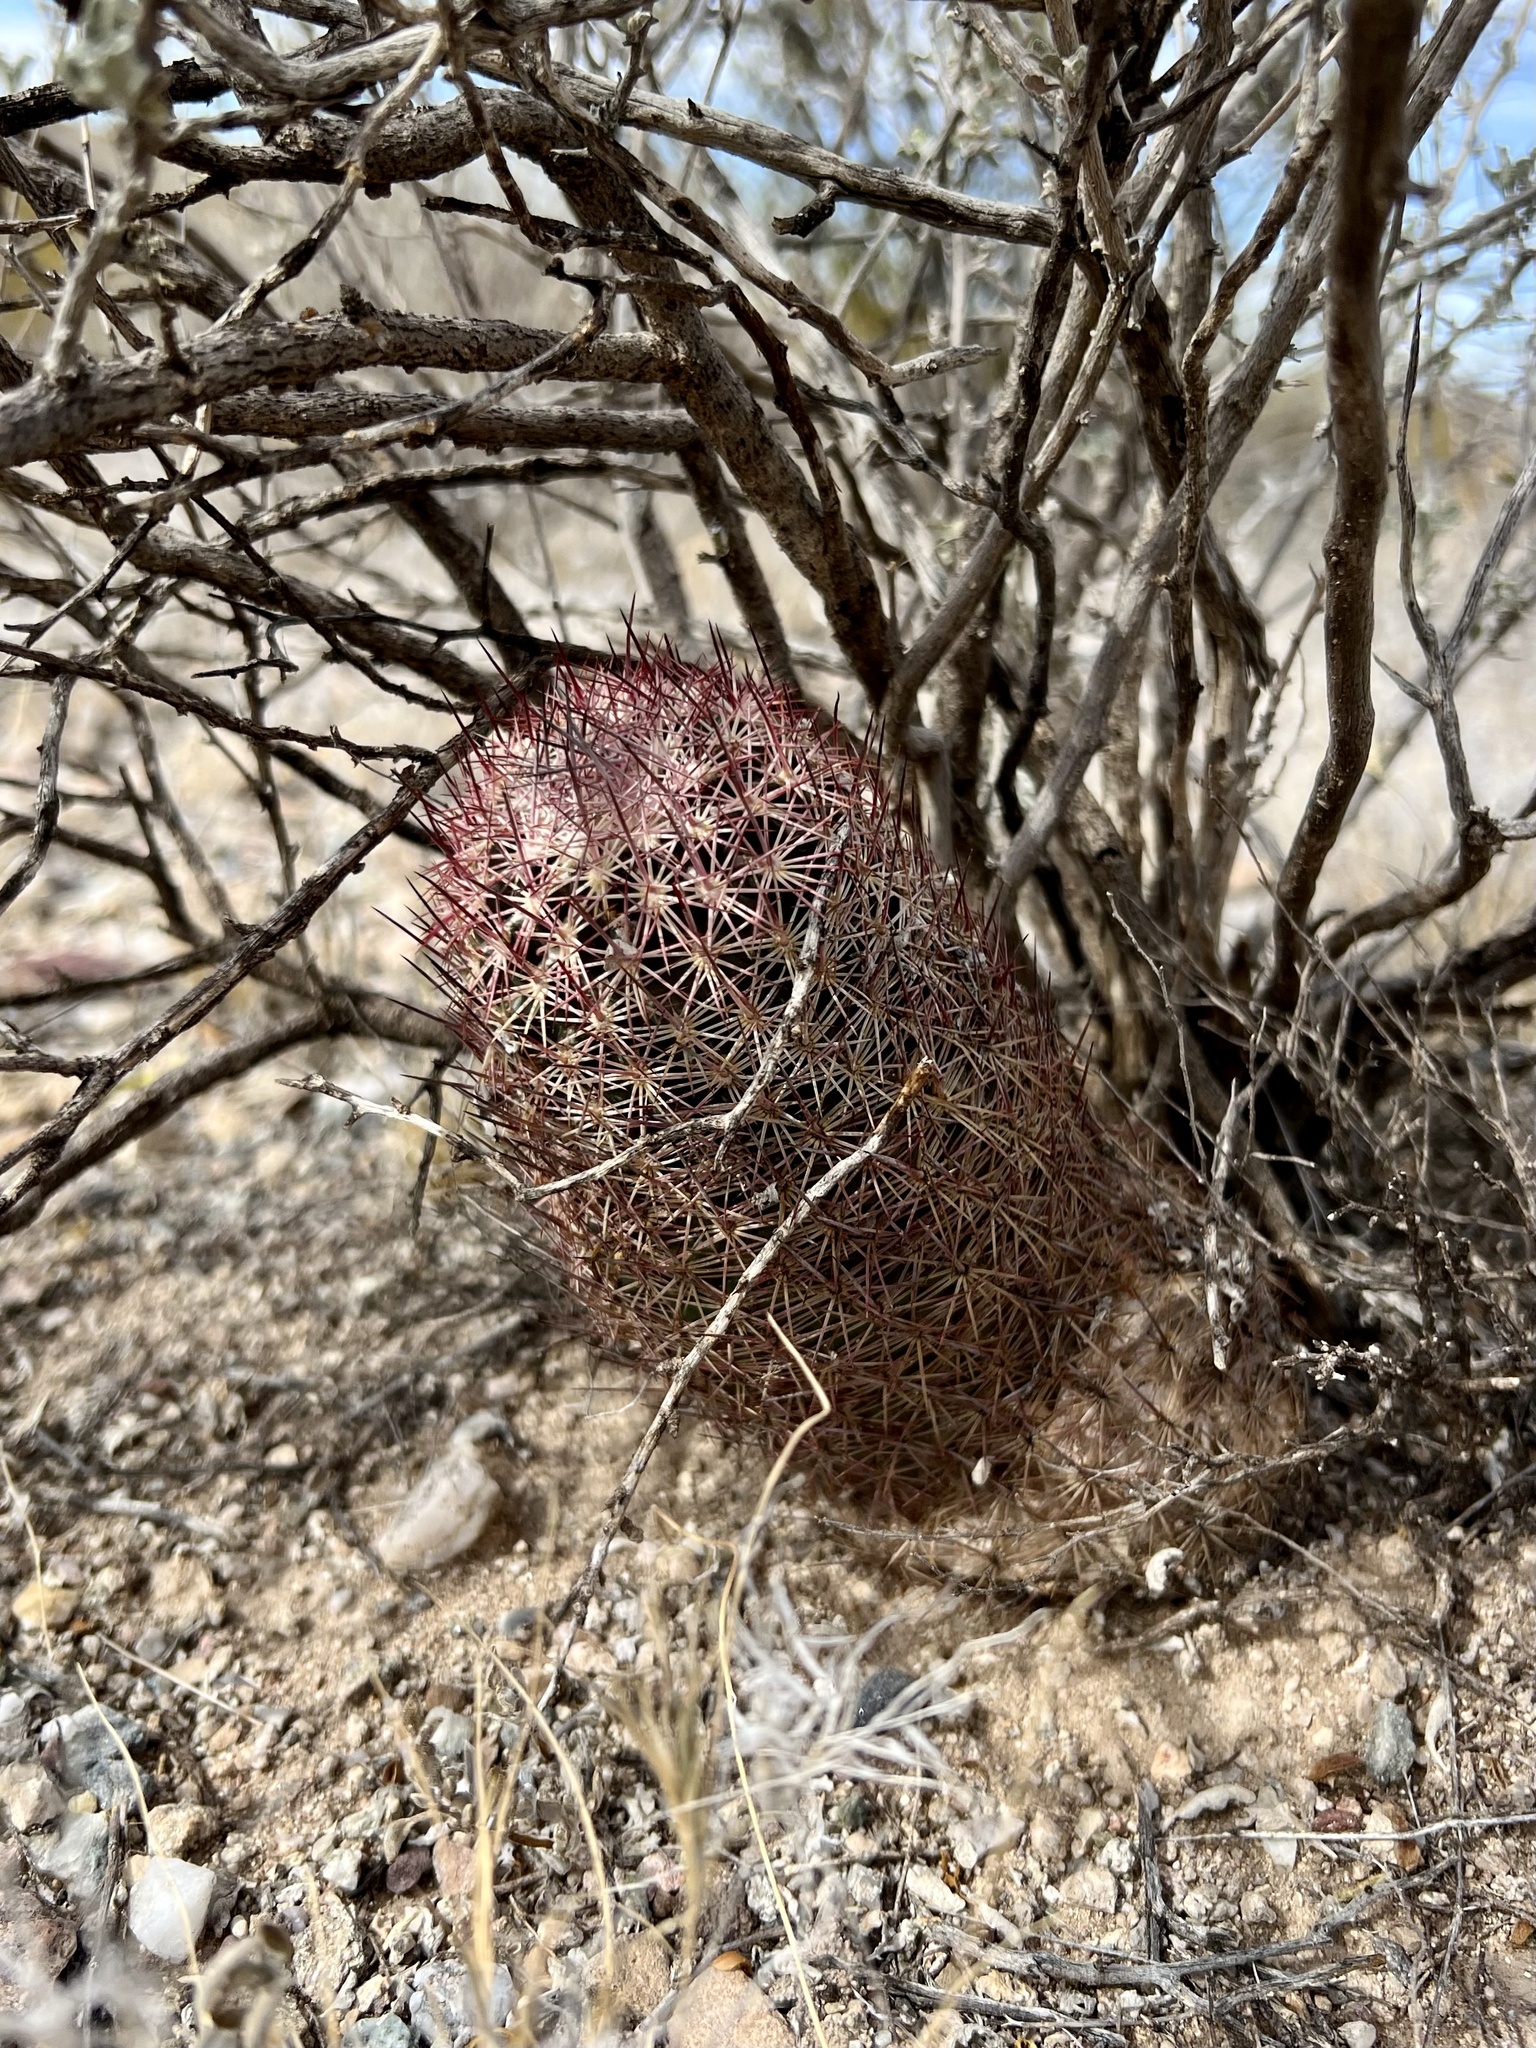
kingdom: Plantae
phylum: Tracheophyta
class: Magnoliopsida
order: Caryophyllales
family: Cactaceae
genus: Sclerocactus
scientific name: Sclerocactus johnsonii
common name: Eight-spine fishhook cactus
